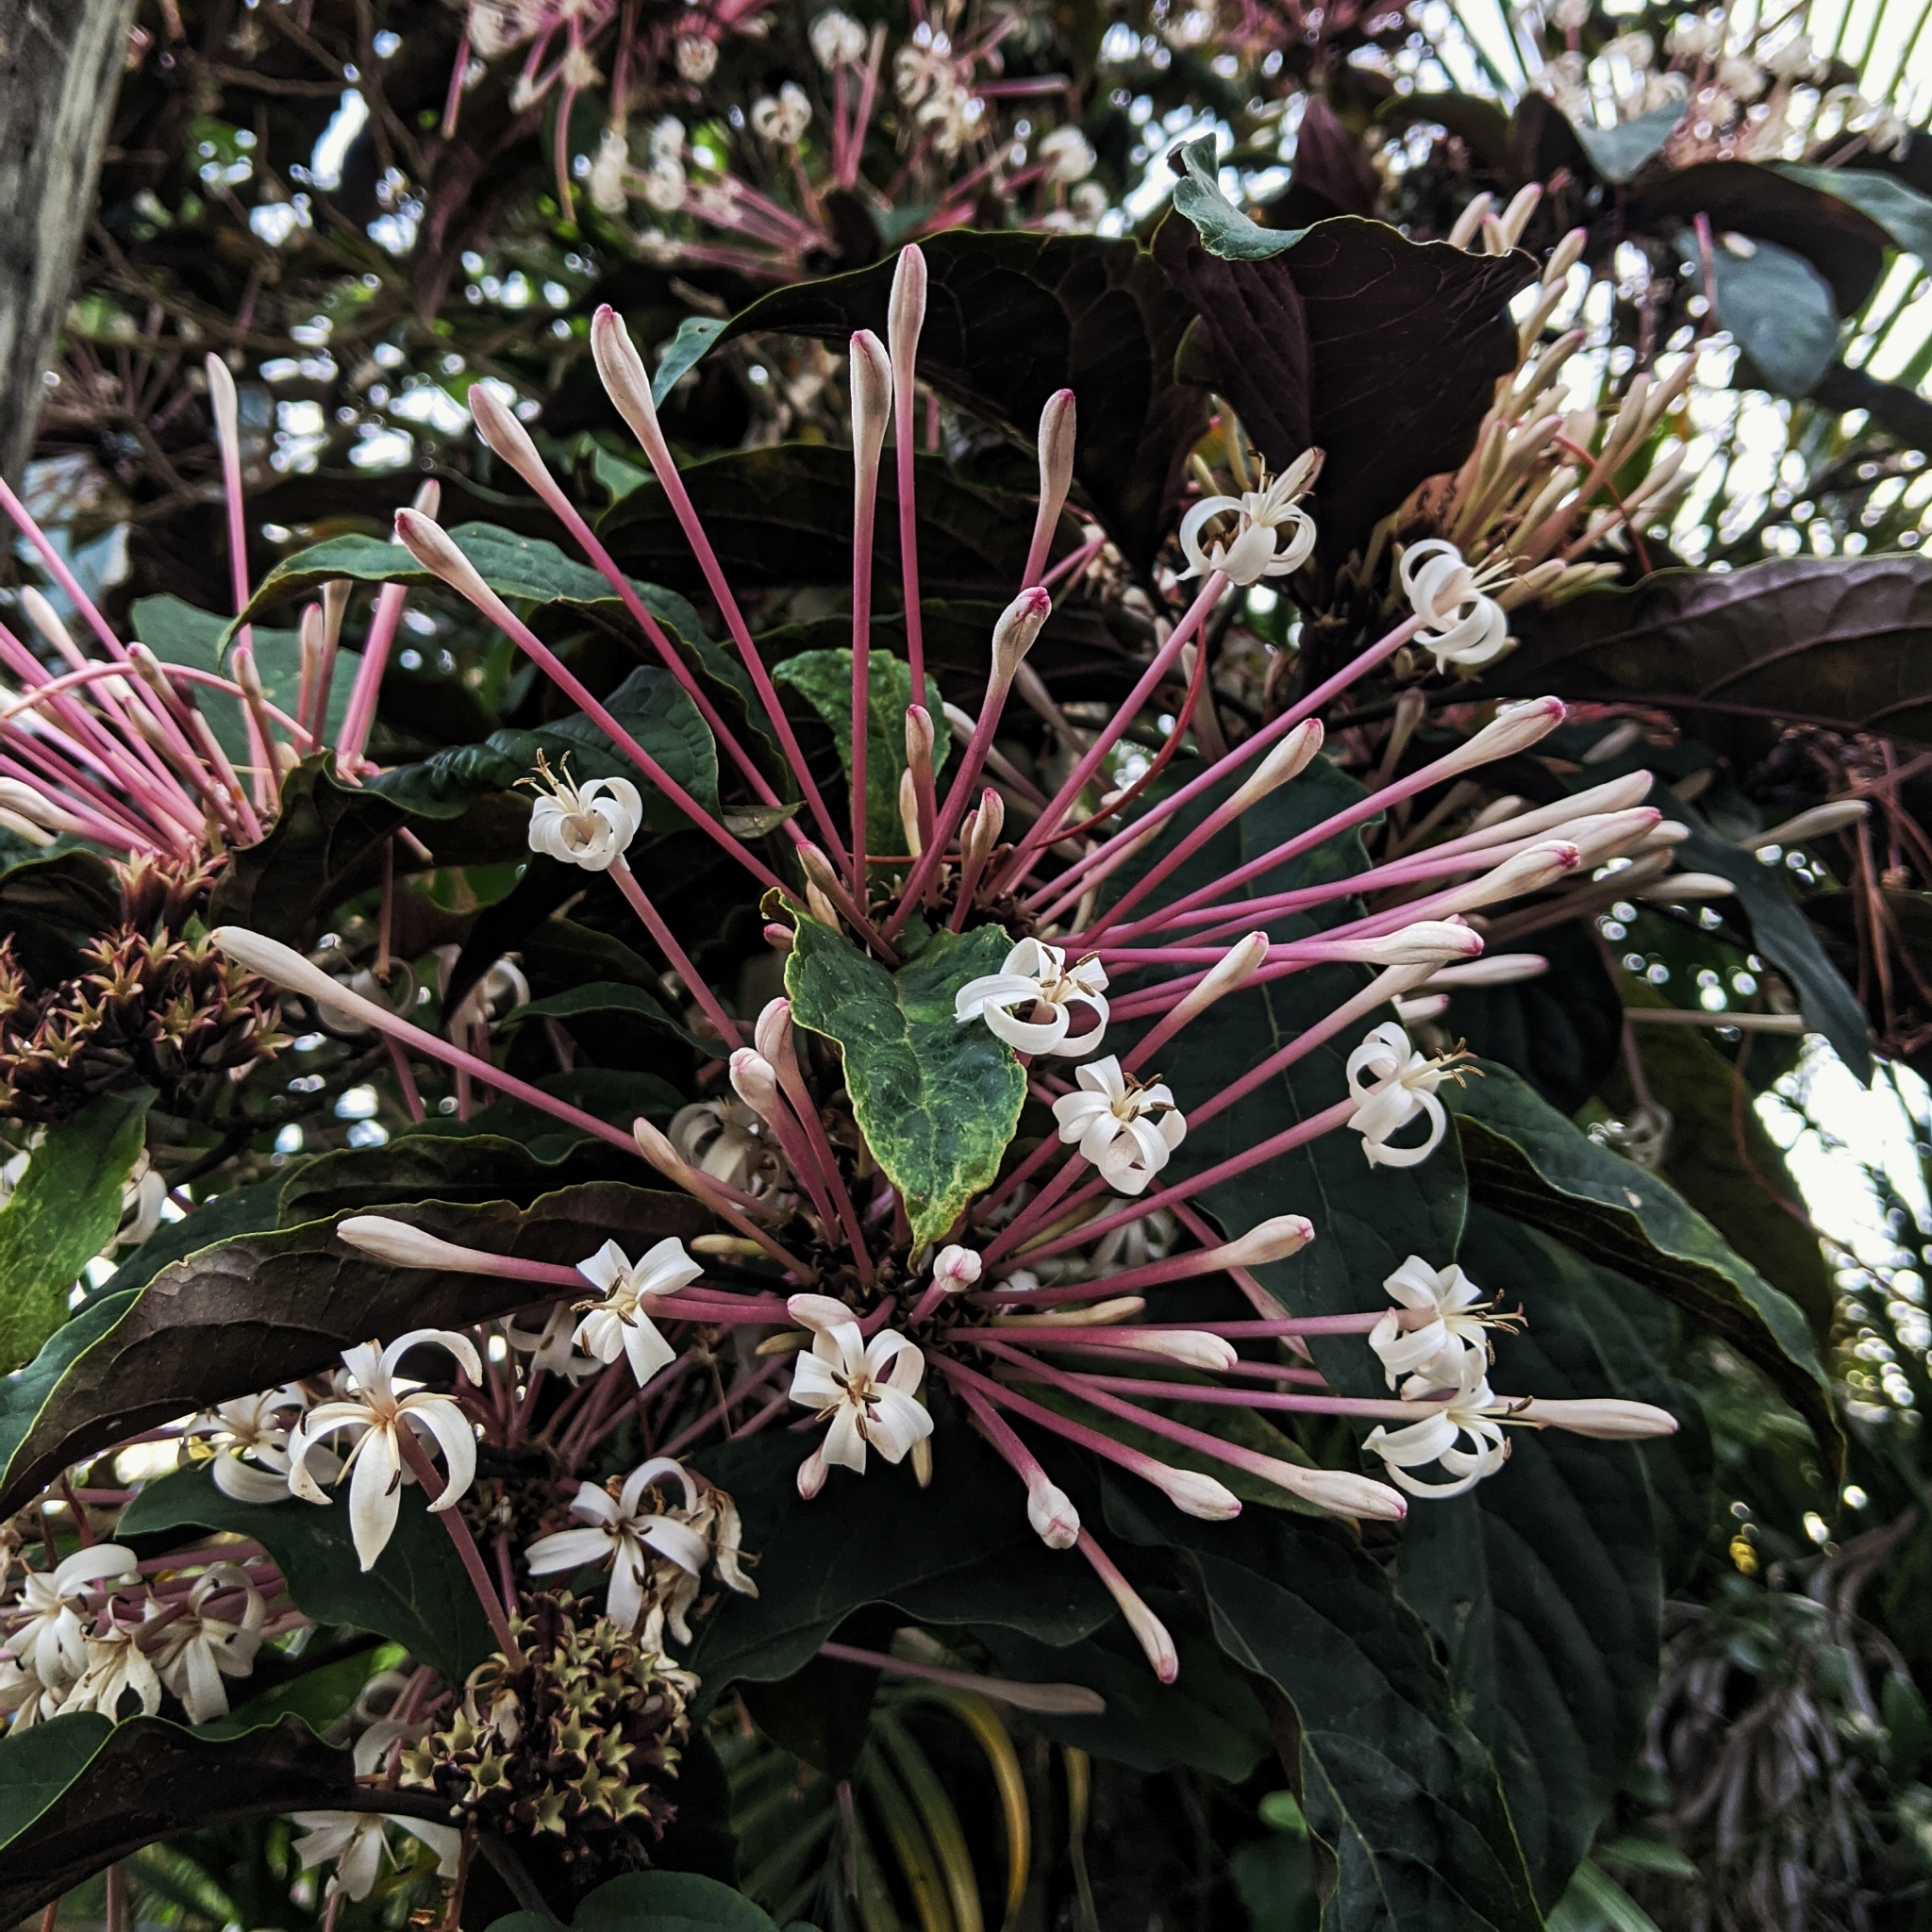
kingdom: Plantae
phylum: Tracheophyta
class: Magnoliopsida
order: Lamiales
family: Lamiaceae
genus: Clerodendrum
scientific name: Clerodendrum quadriloculare
